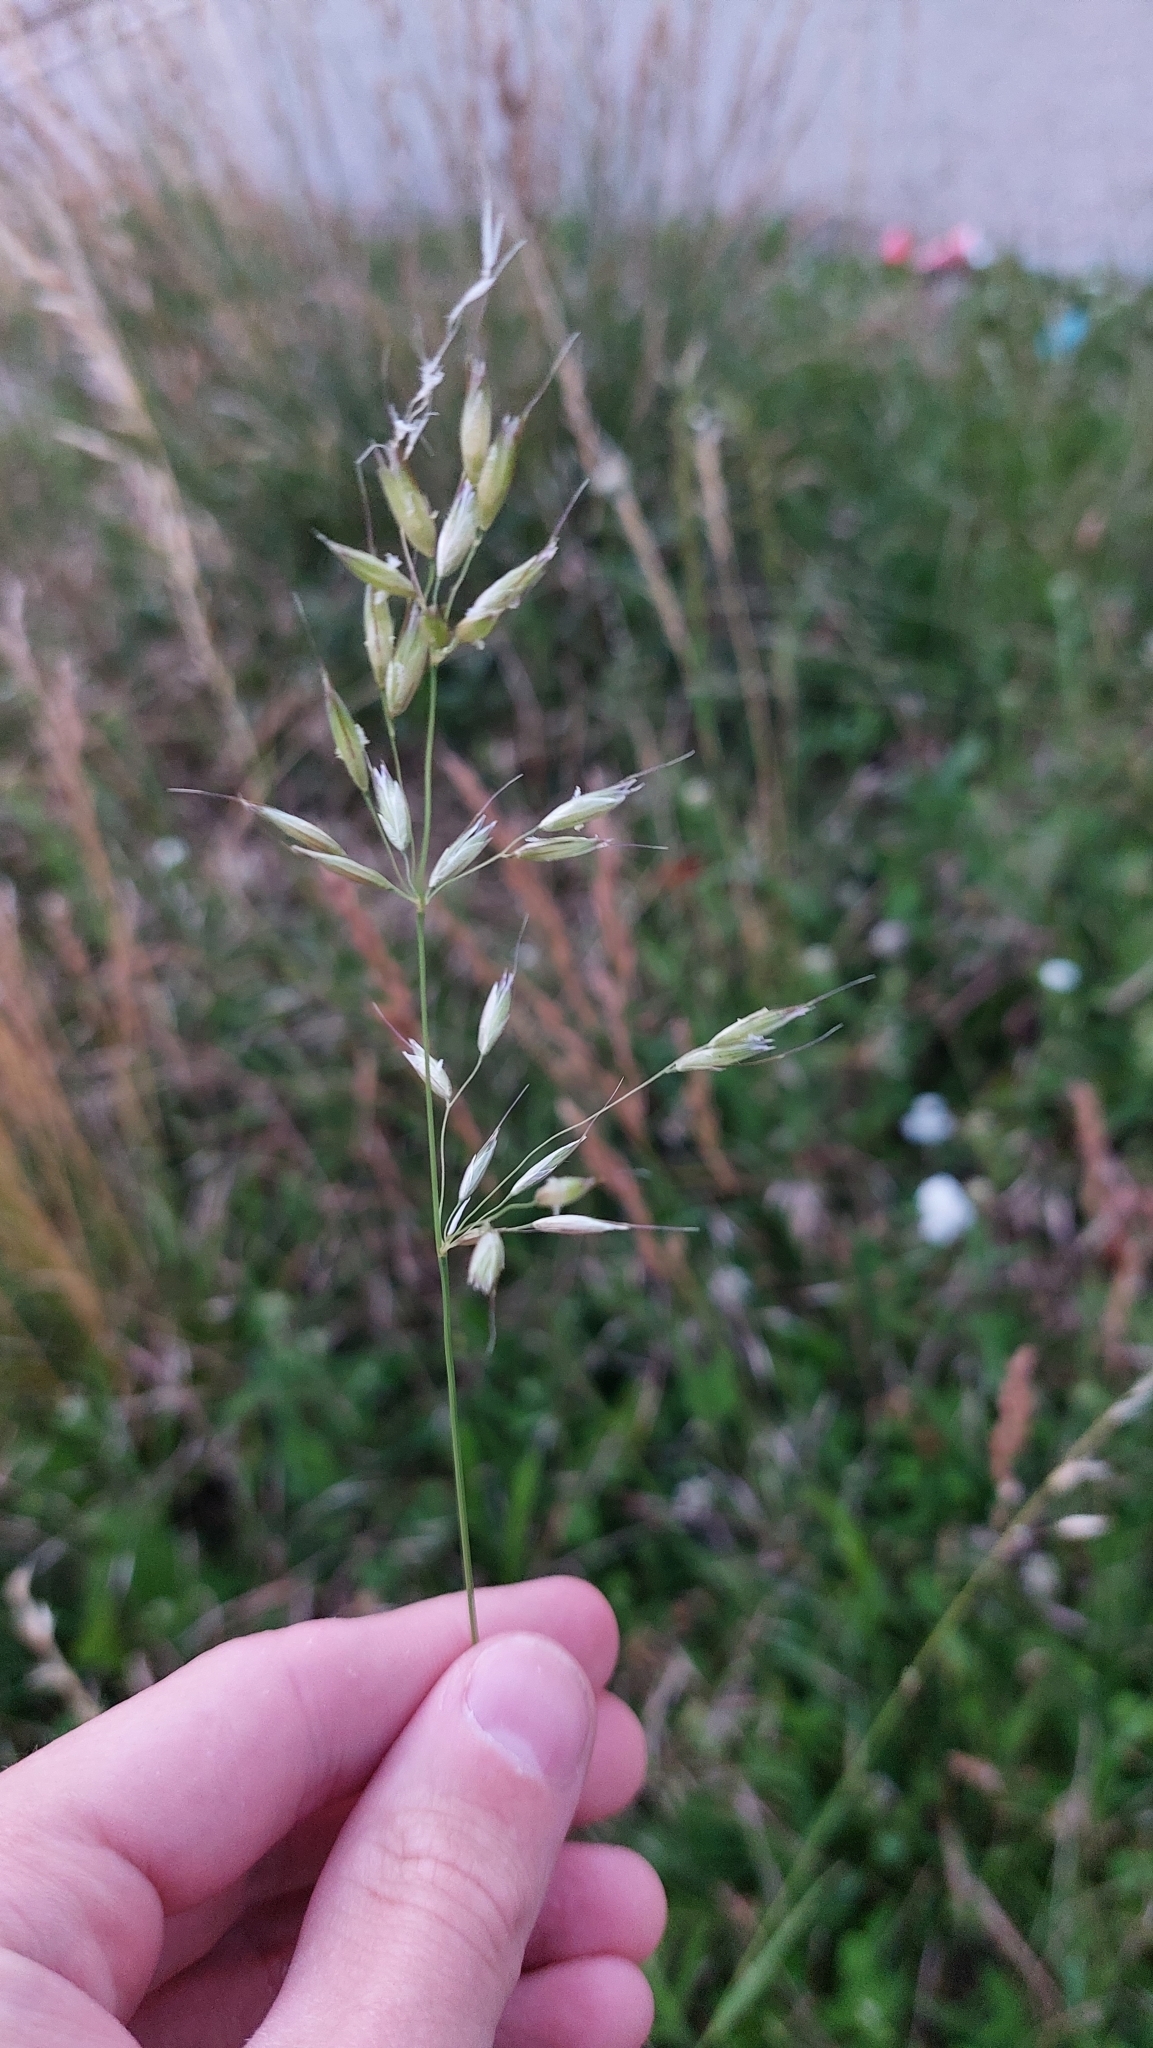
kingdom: Plantae
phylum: Tracheophyta
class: Liliopsida
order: Poales
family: Poaceae
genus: Arrhenatherum
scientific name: Arrhenatherum elatius
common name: Tall oatgrass
